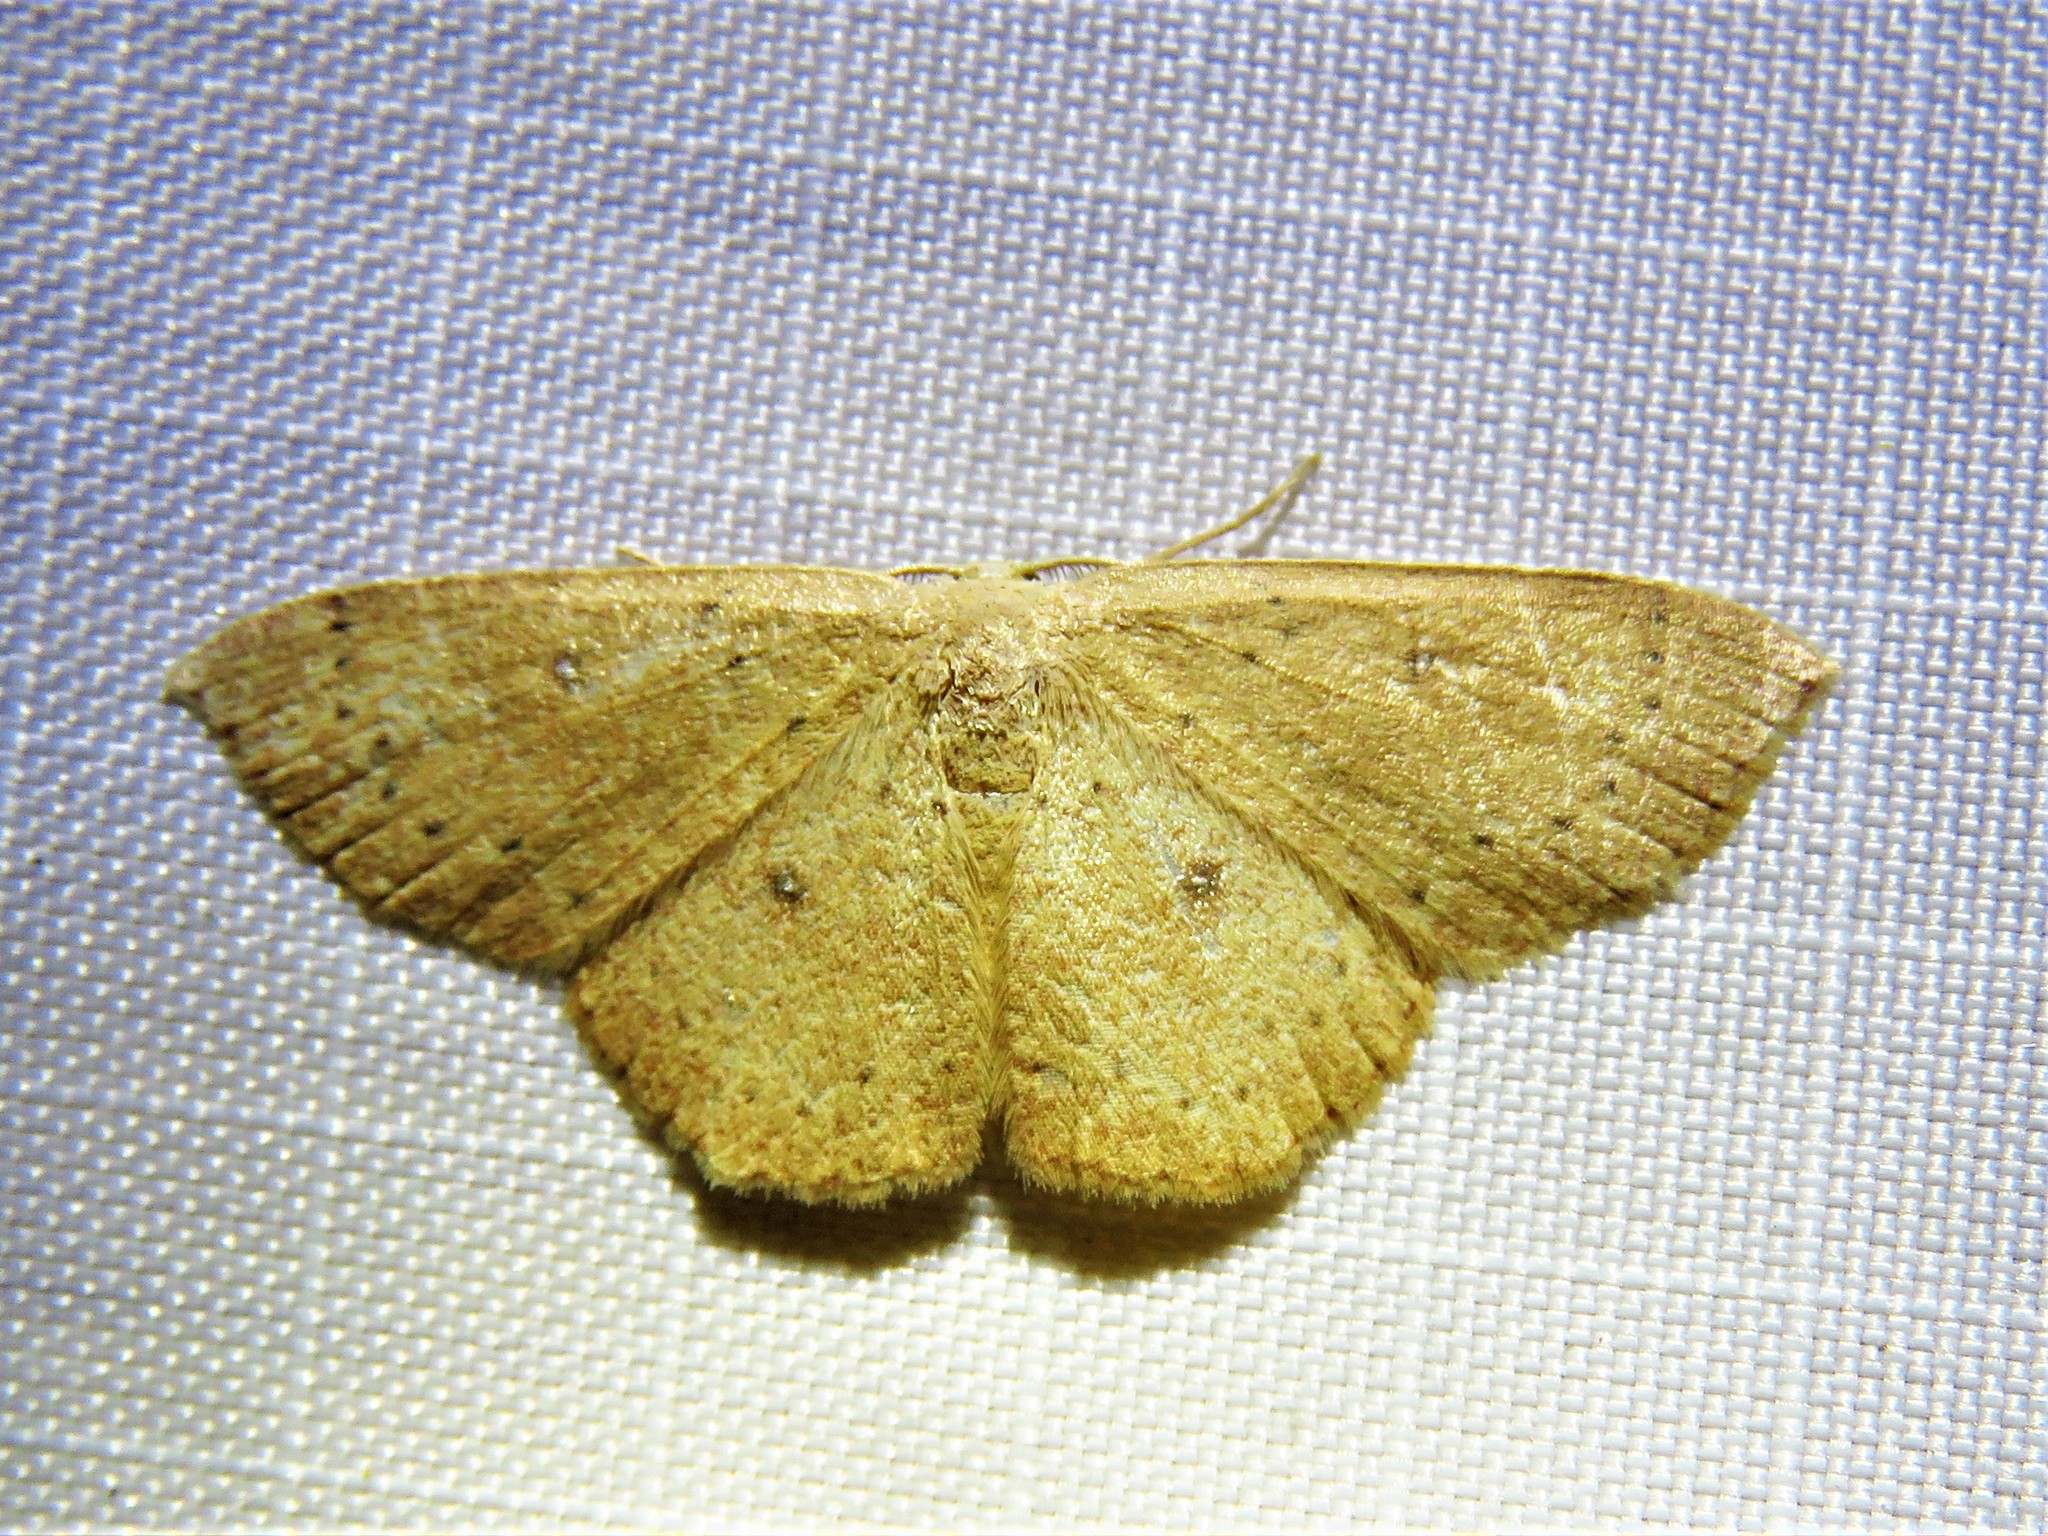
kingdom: Animalia
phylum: Arthropoda
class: Insecta
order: Lepidoptera
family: Geometridae
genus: Cyclophora
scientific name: Cyclophora packardi
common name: Packard's wave
